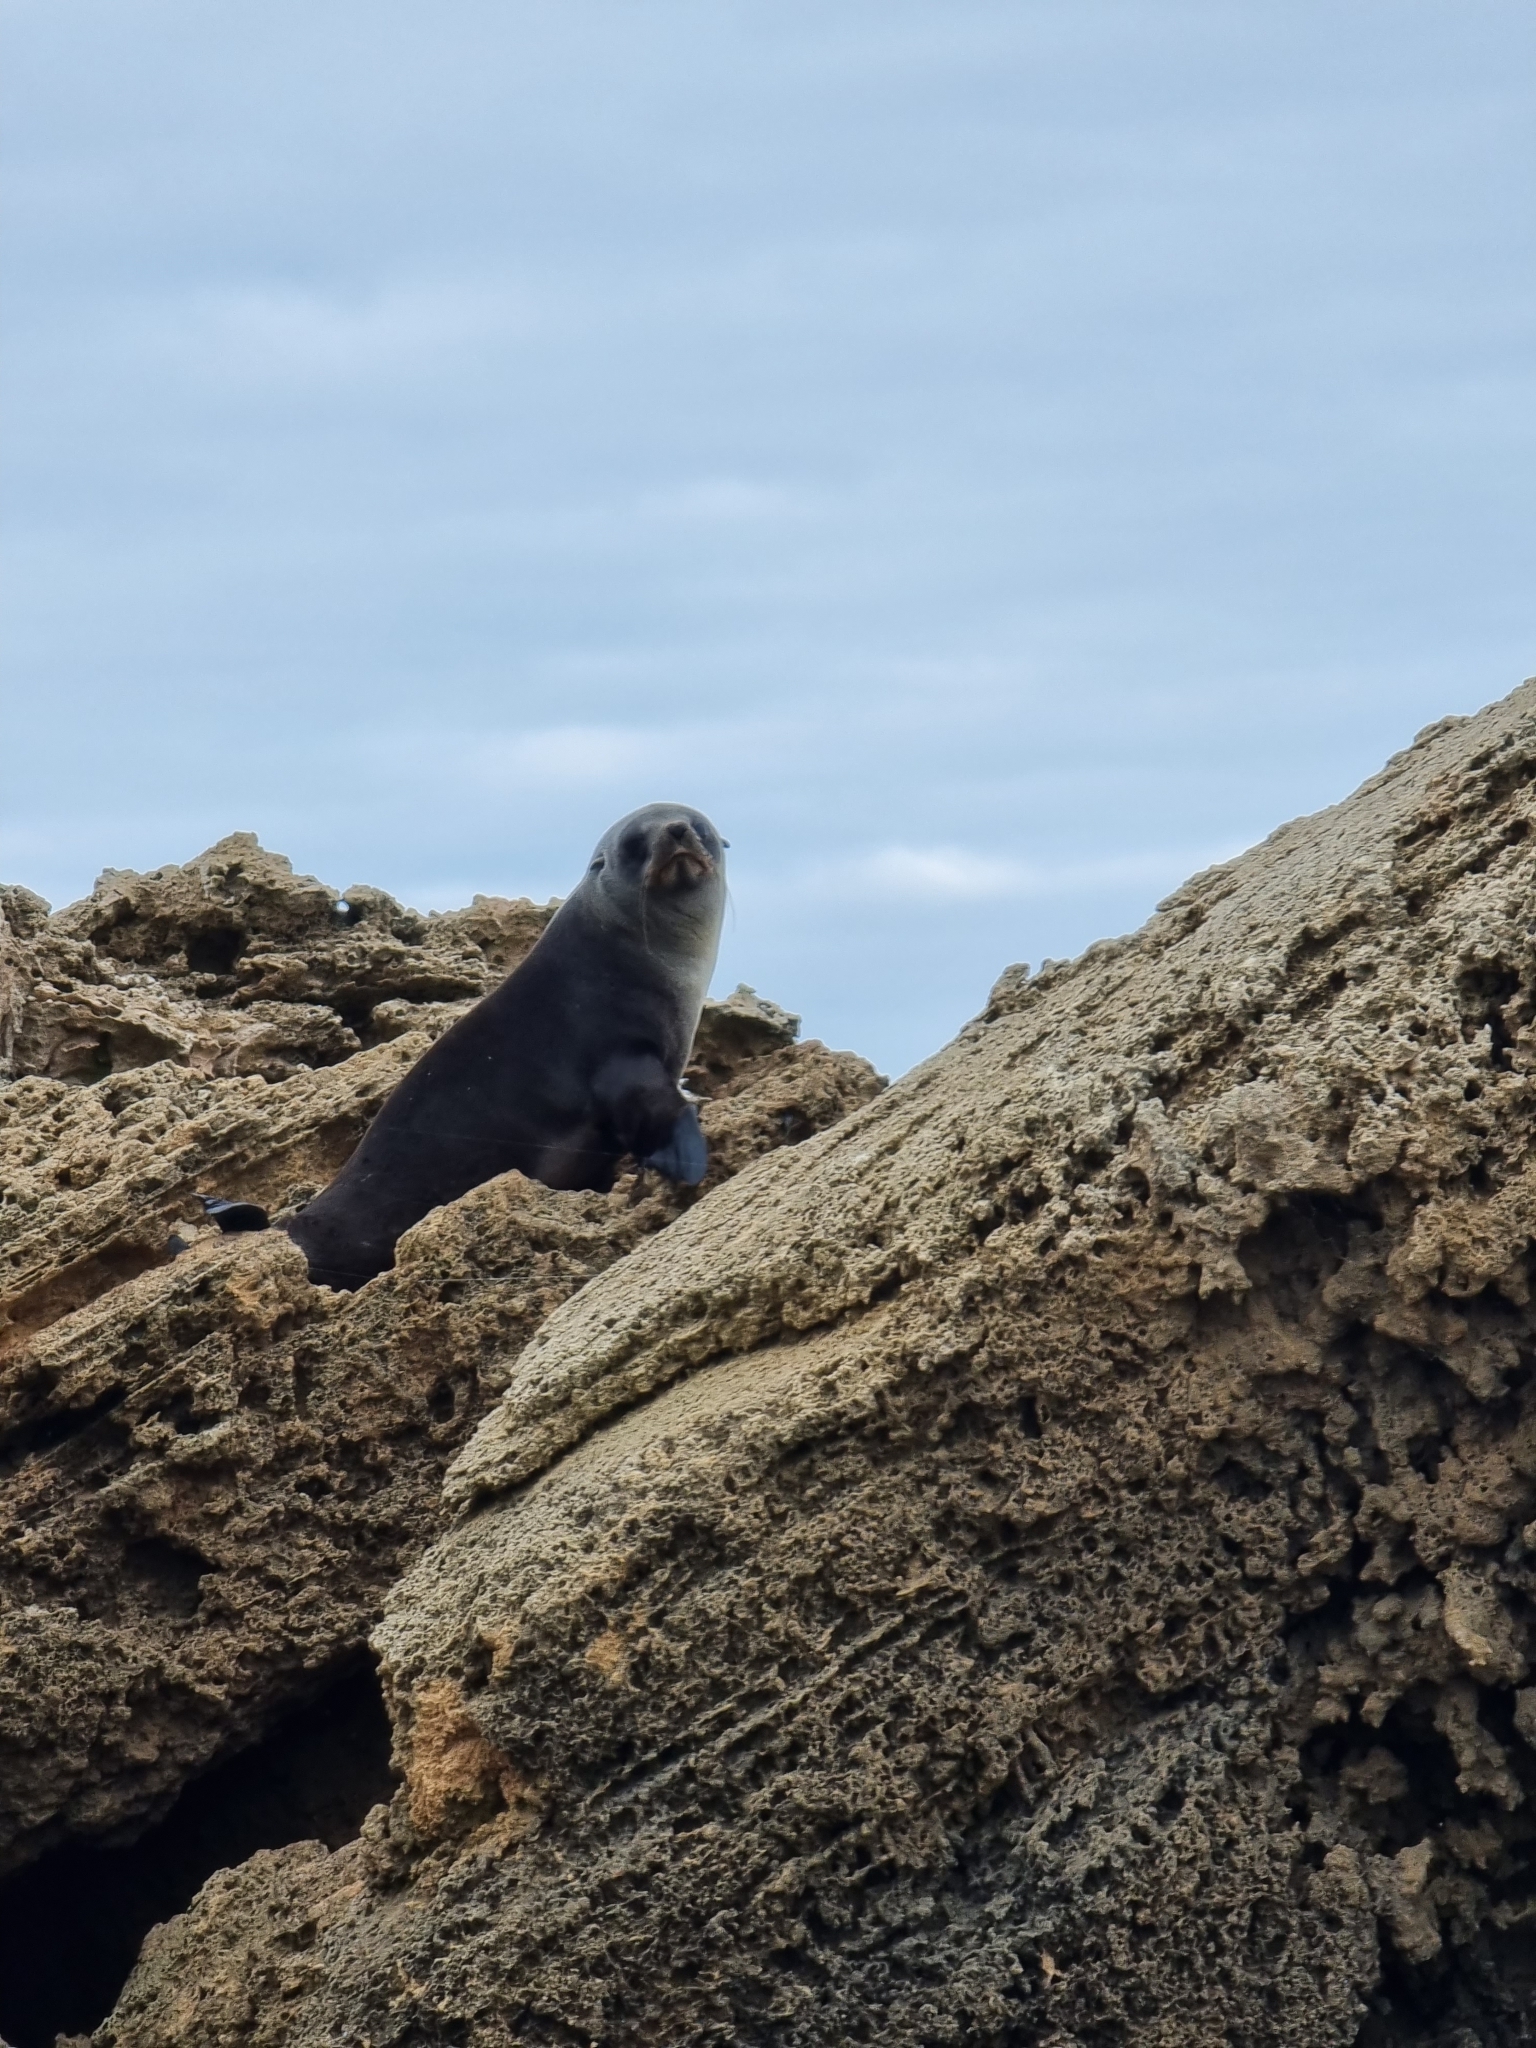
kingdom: Animalia
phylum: Chordata
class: Mammalia
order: Carnivora
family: Otariidae
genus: Arctocephalus
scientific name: Arctocephalus pusillus
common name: Brown fur seal
